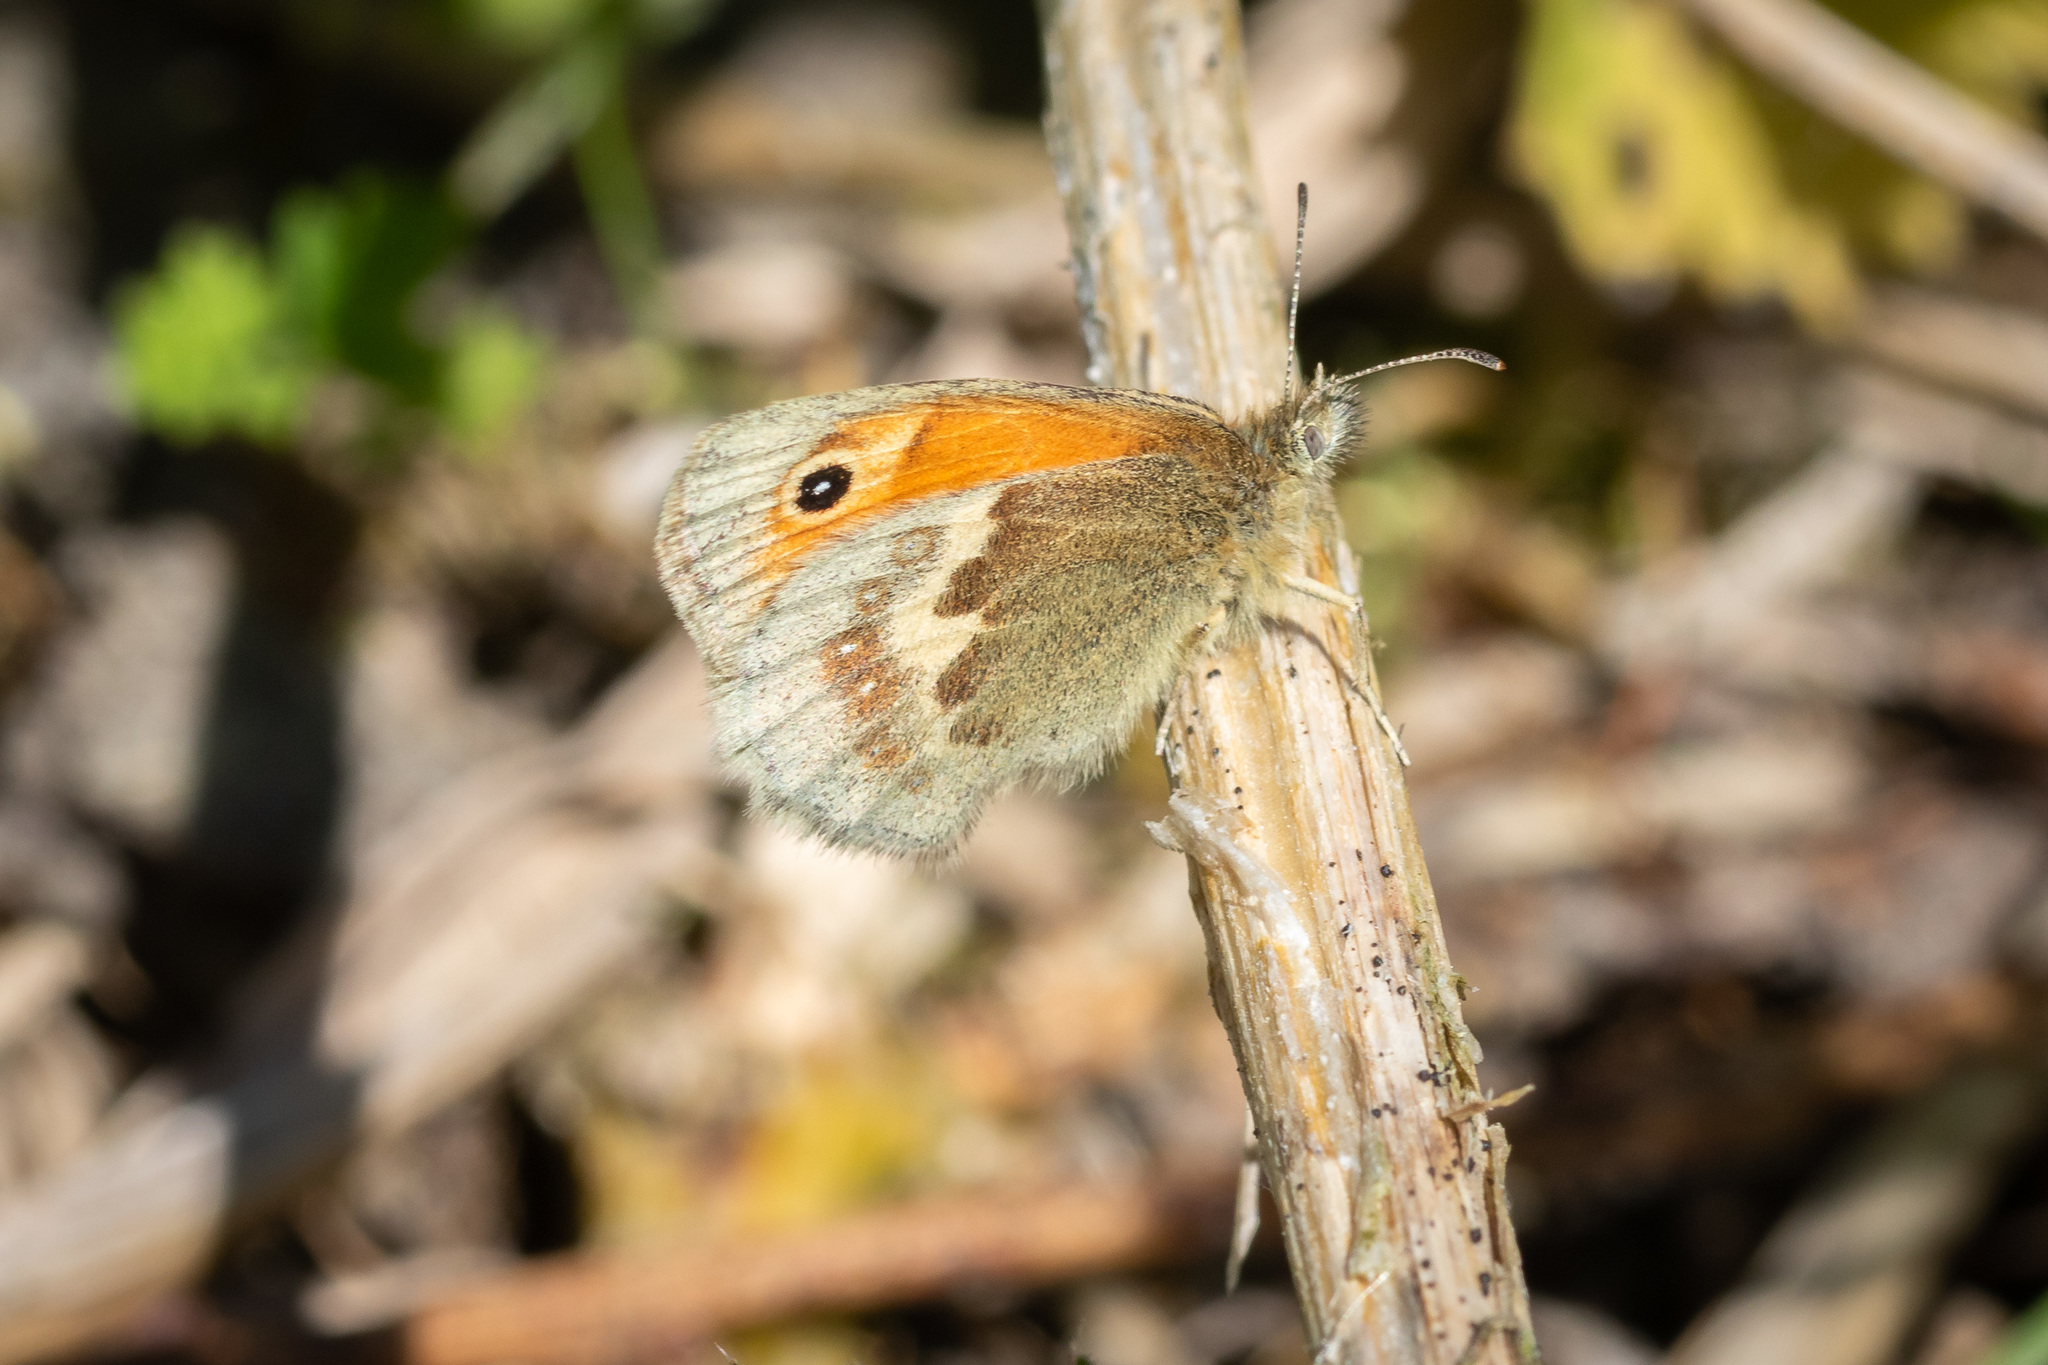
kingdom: Animalia
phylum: Arthropoda
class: Insecta
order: Lepidoptera
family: Nymphalidae
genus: Coenonympha
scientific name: Coenonympha pamphilus
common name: Small heath
